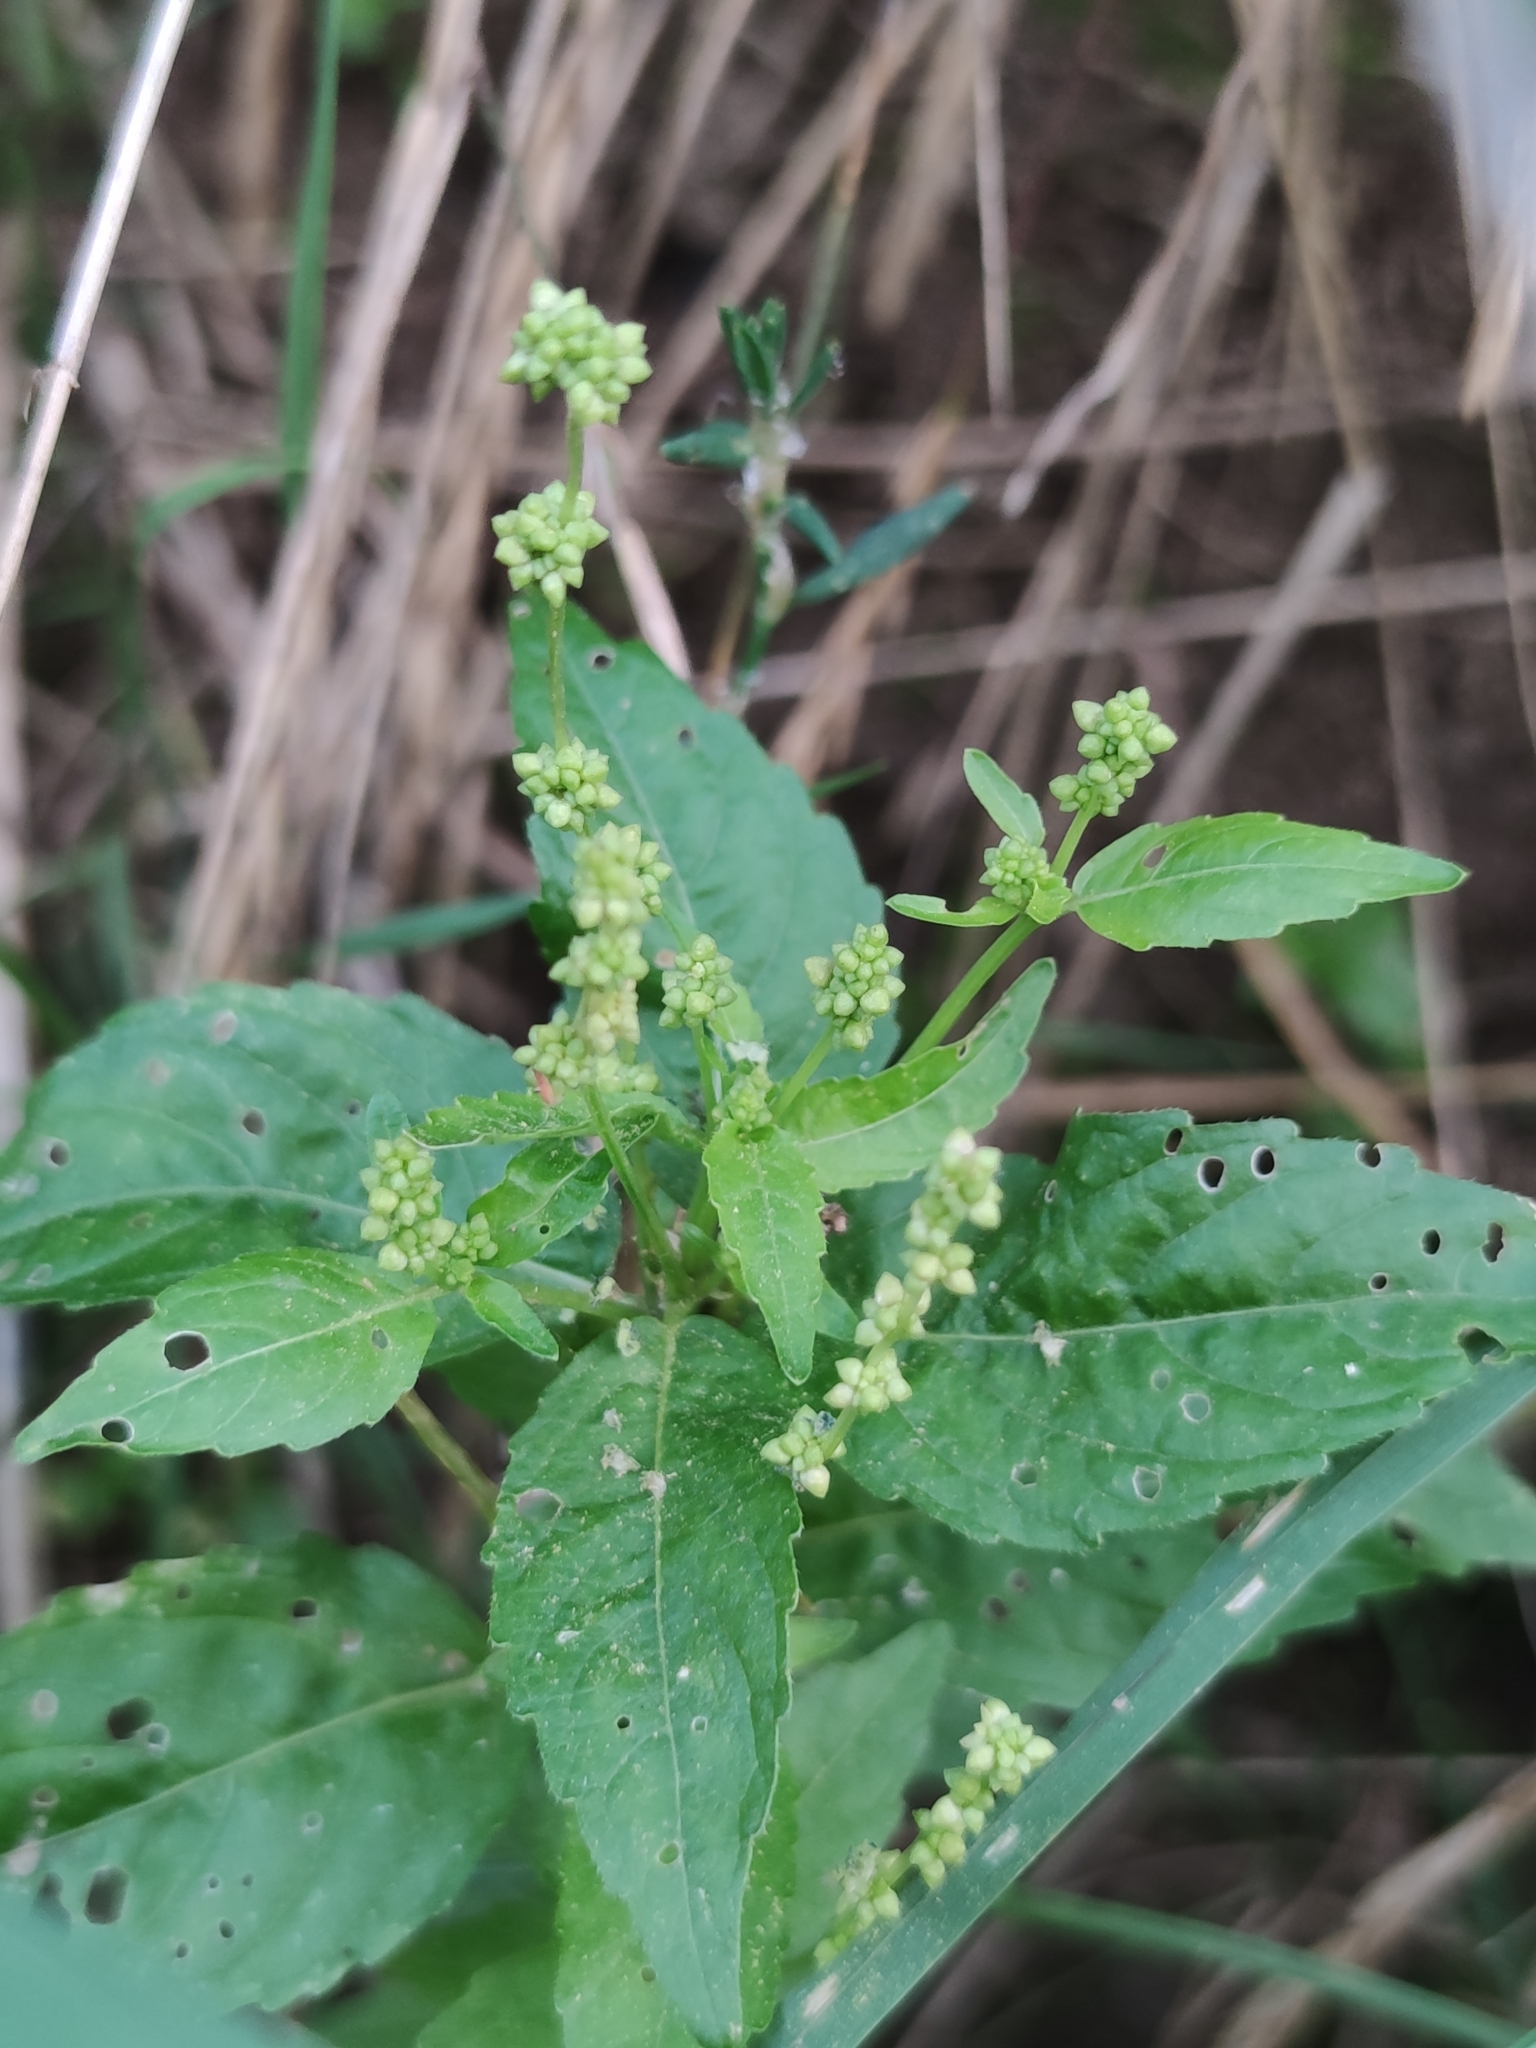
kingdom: Plantae
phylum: Tracheophyta
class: Magnoliopsida
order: Malpighiales
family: Euphorbiaceae
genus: Mercurialis
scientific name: Mercurialis annua
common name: Annual mercury
